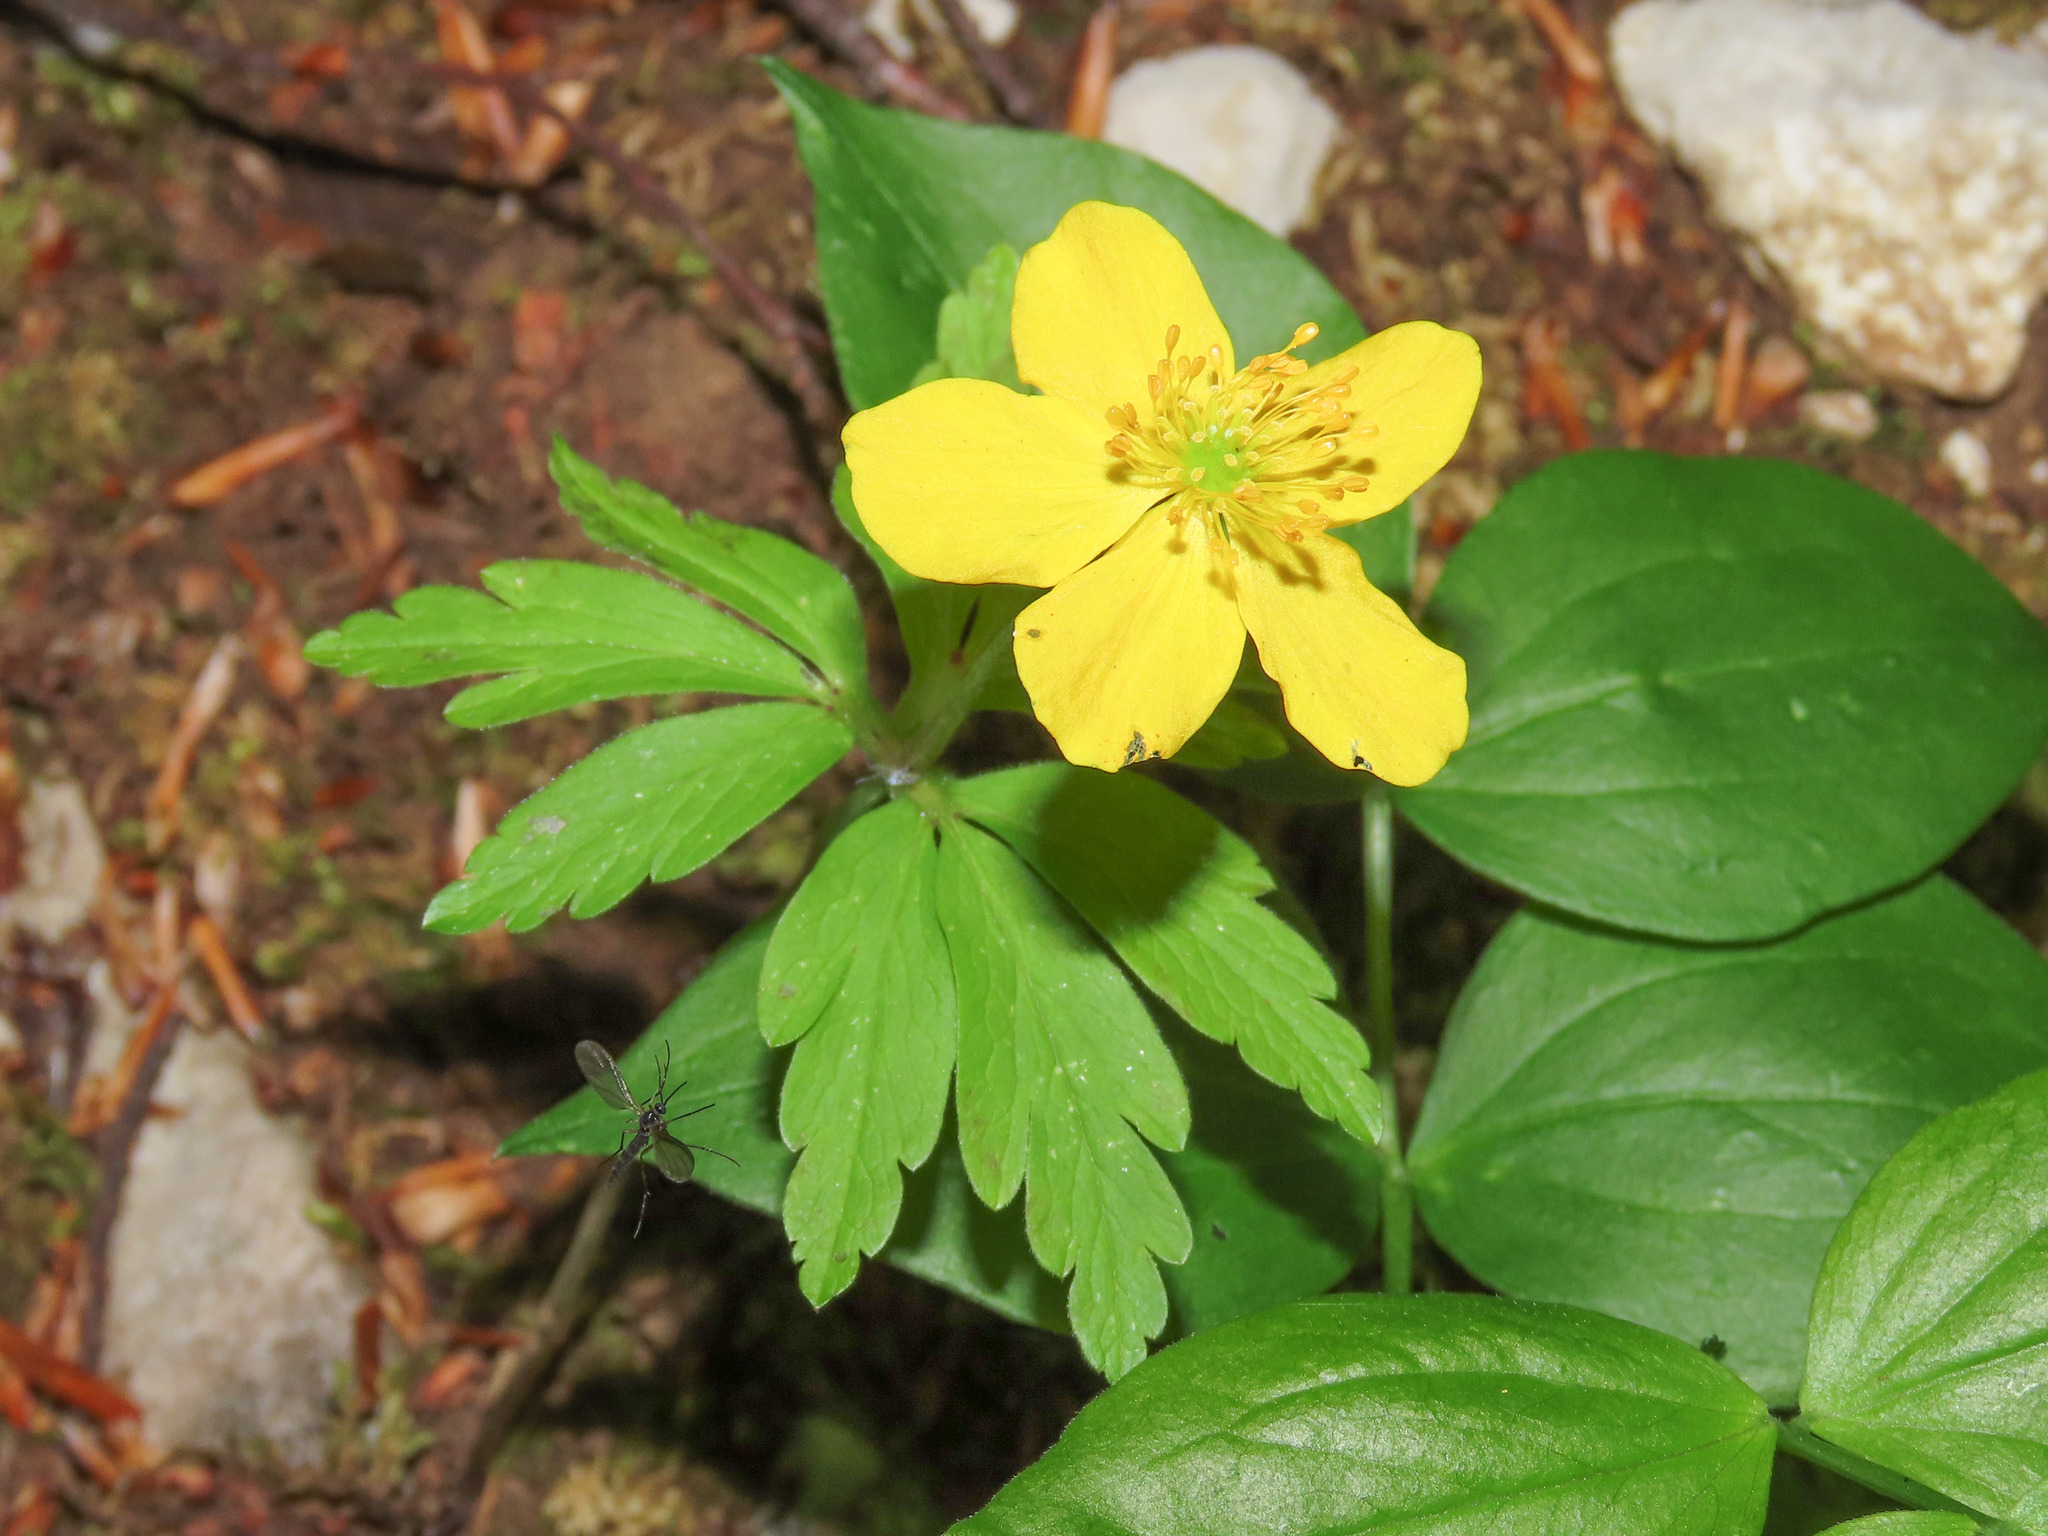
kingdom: Plantae
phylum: Tracheophyta
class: Magnoliopsida
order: Ranunculales
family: Ranunculaceae
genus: Anemone
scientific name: Anemone ranunculoides
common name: Yellow anemone
